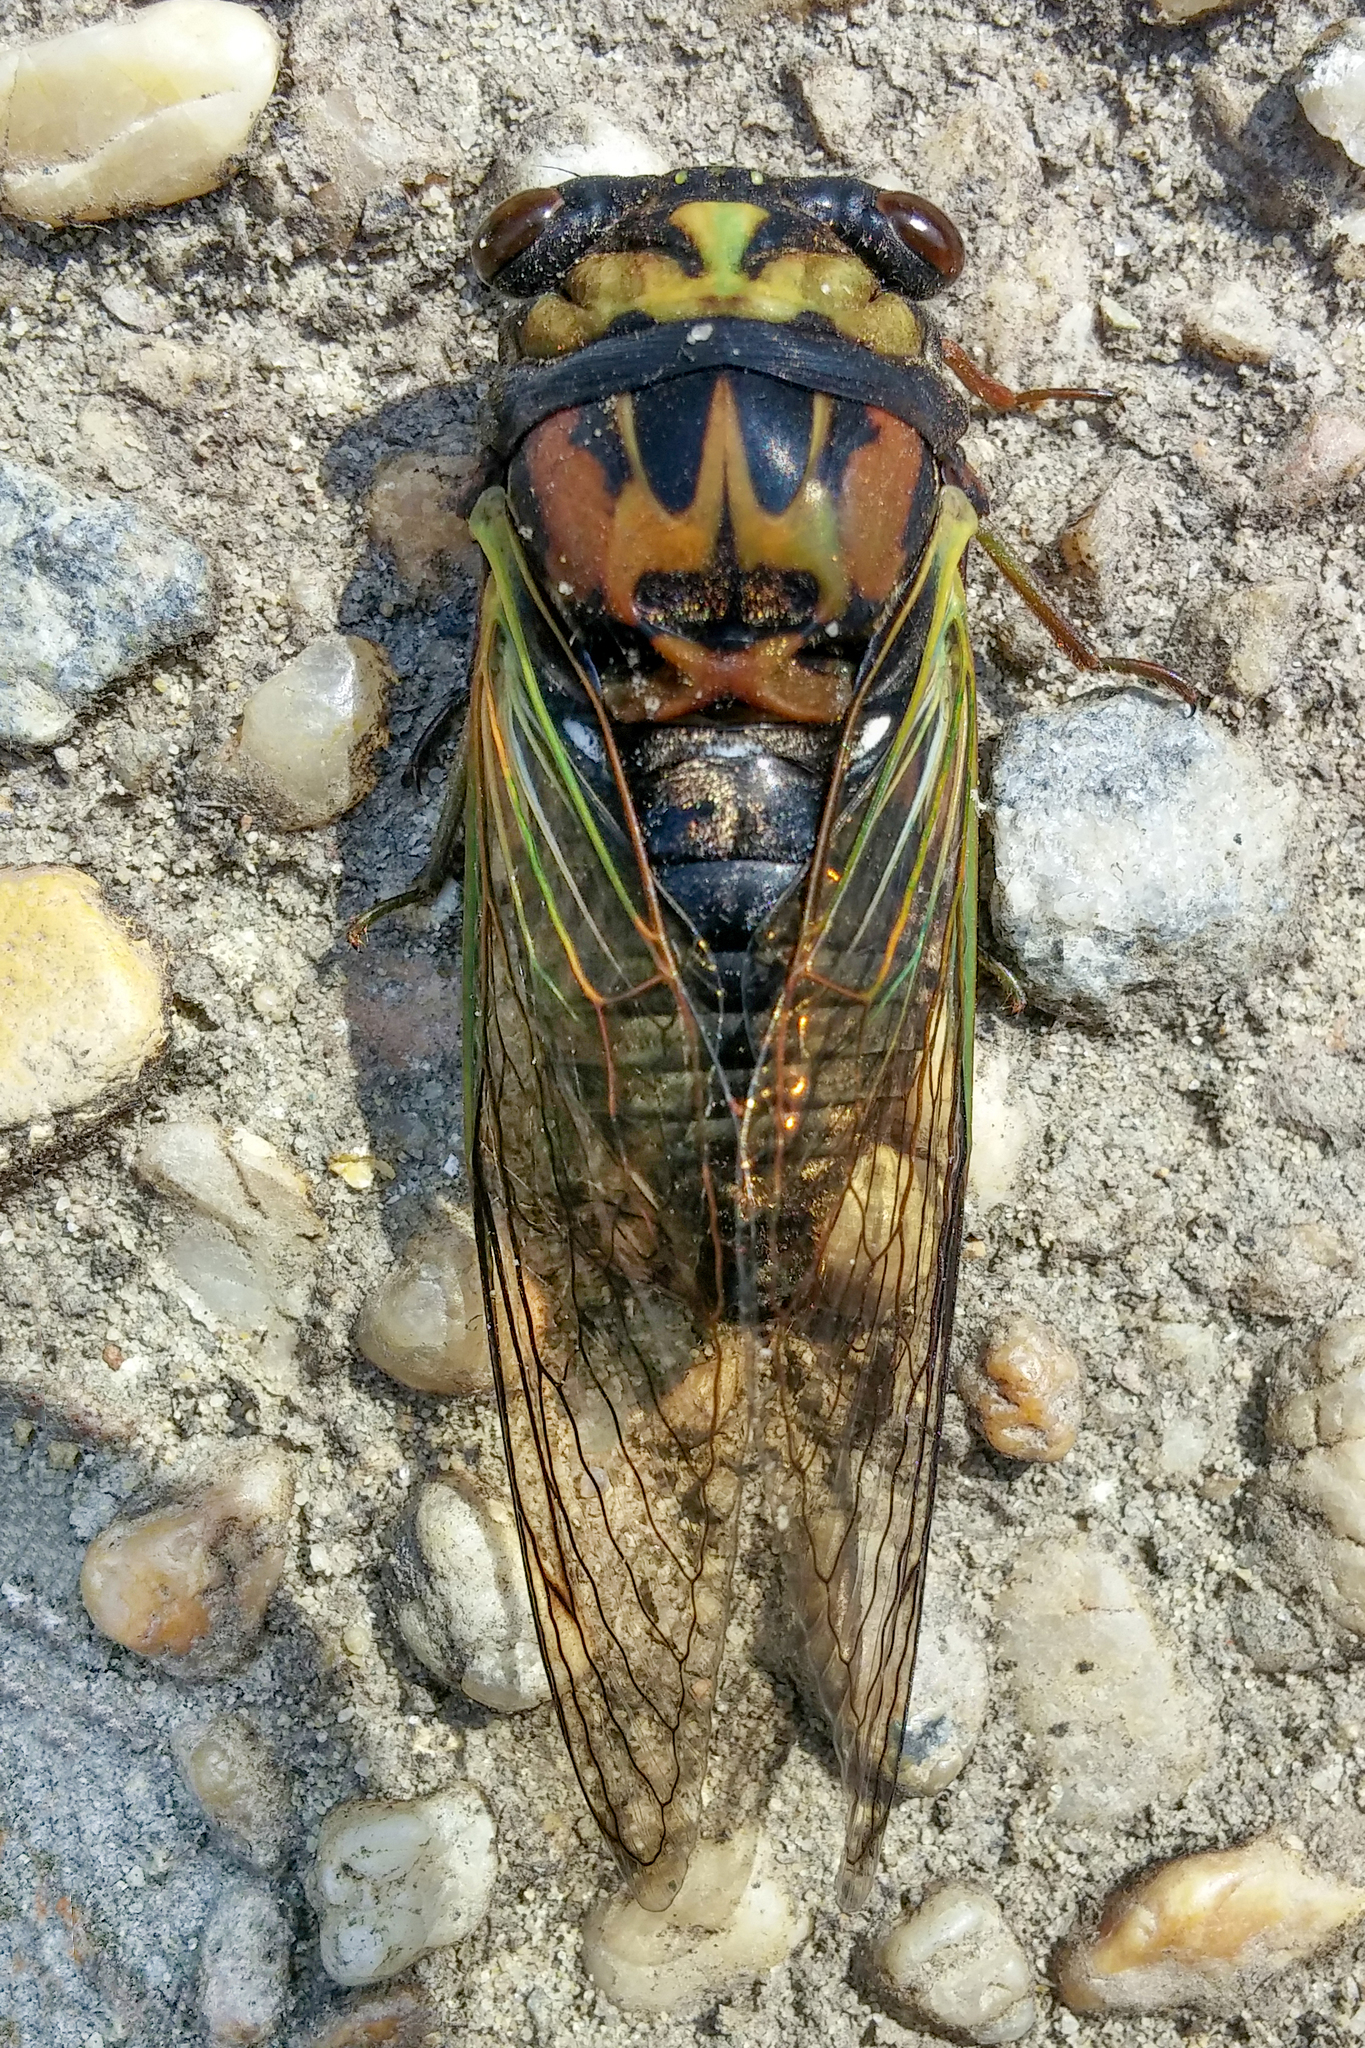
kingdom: Animalia
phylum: Arthropoda
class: Insecta
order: Hemiptera
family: Cicadidae
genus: Neotibicen
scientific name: Neotibicen lyricen
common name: Lyric cicada
